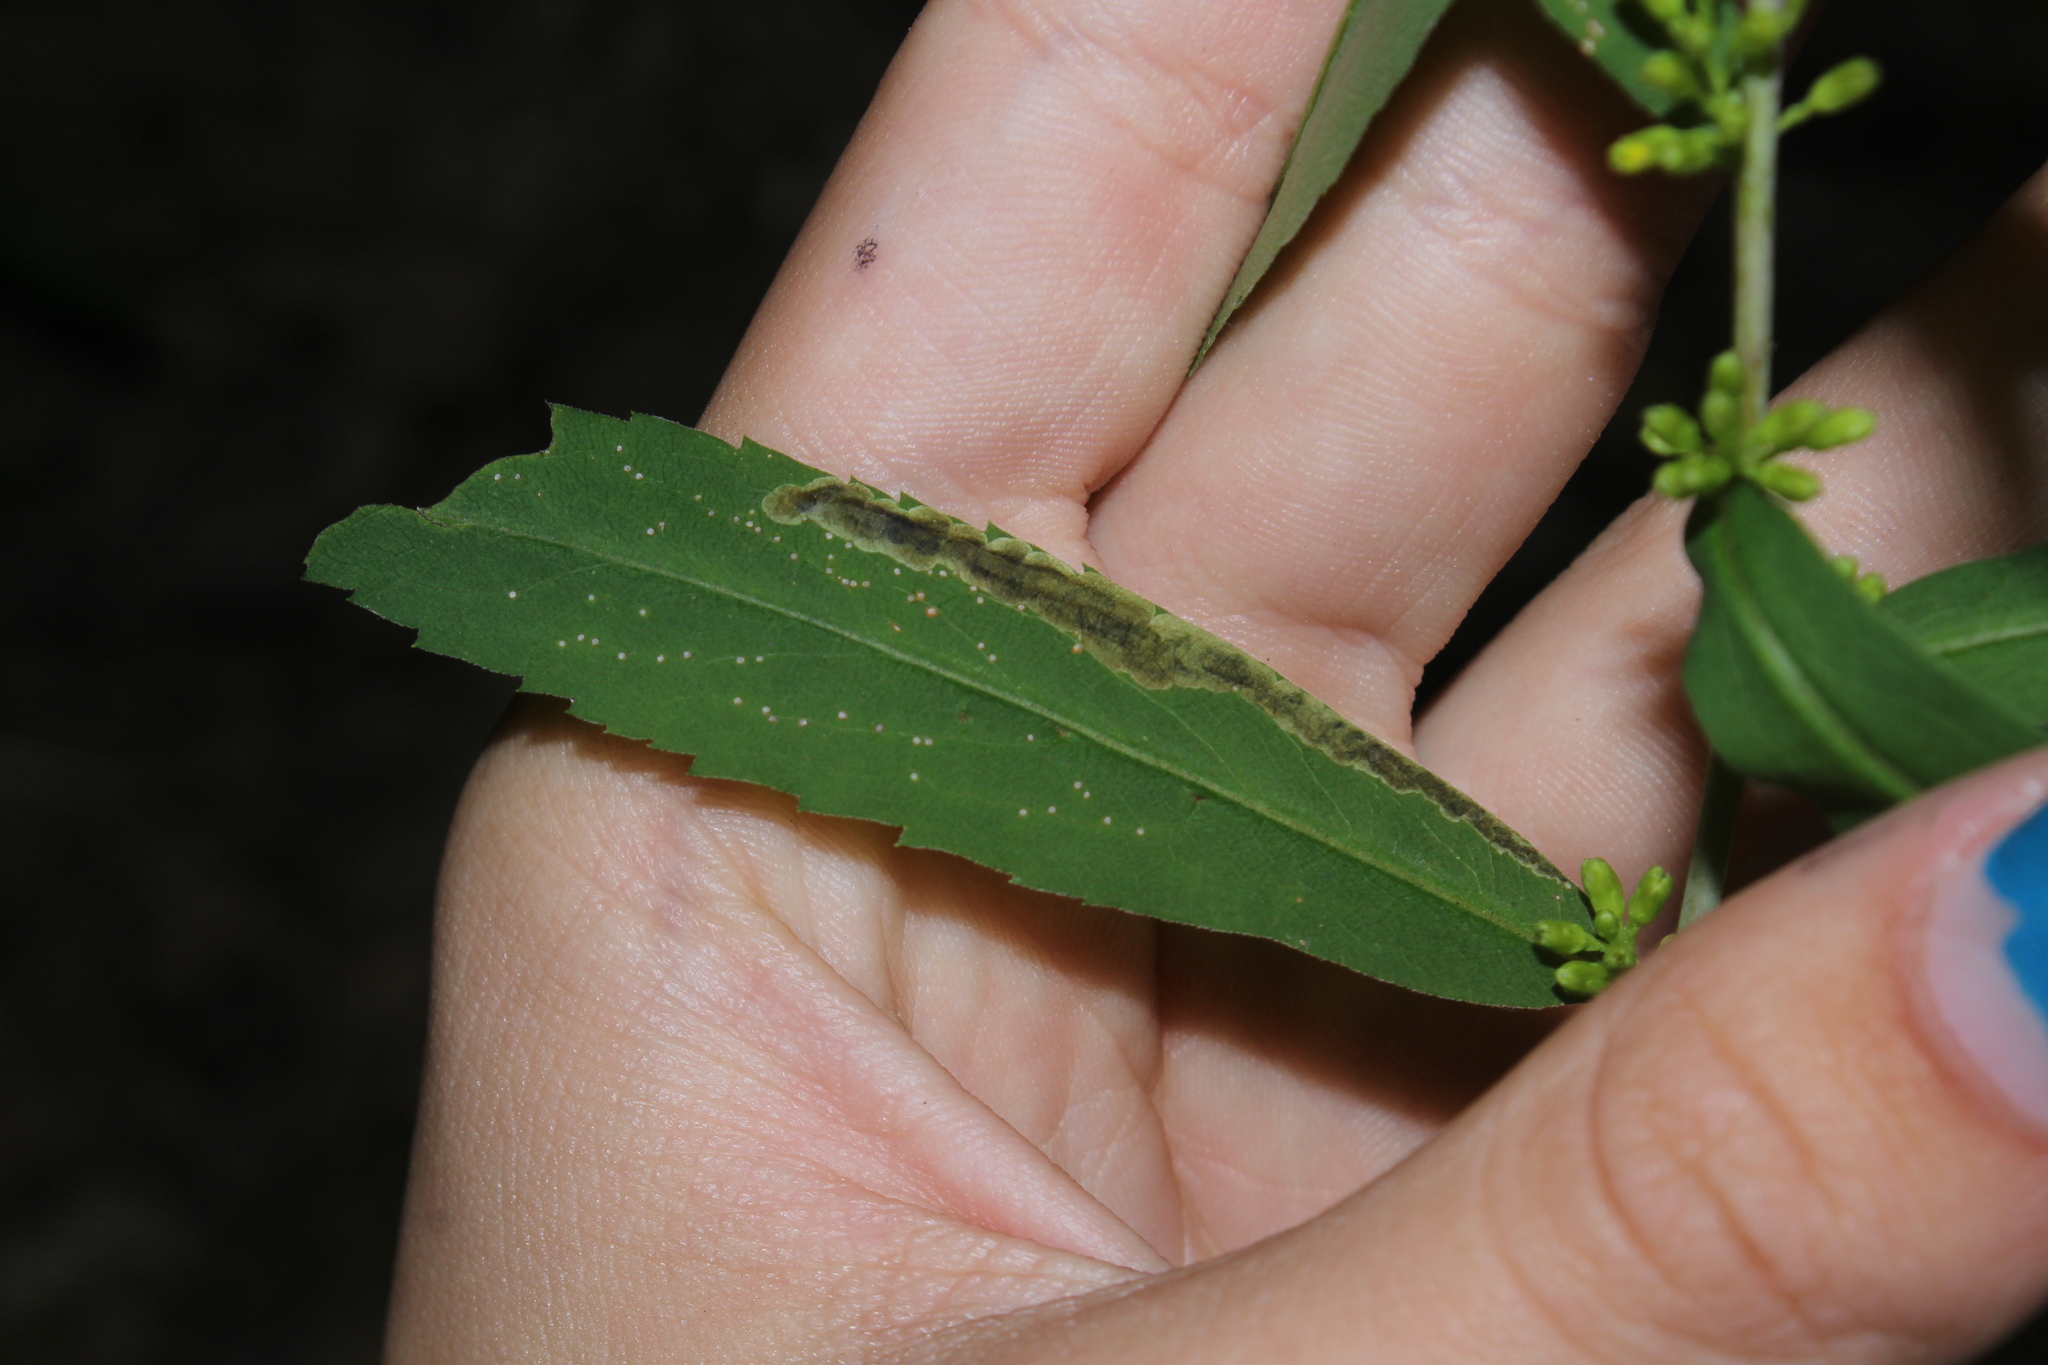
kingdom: Animalia
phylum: Arthropoda
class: Insecta
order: Diptera
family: Agromyzidae
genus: Nemorimyza
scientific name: Nemorimyza posticata
